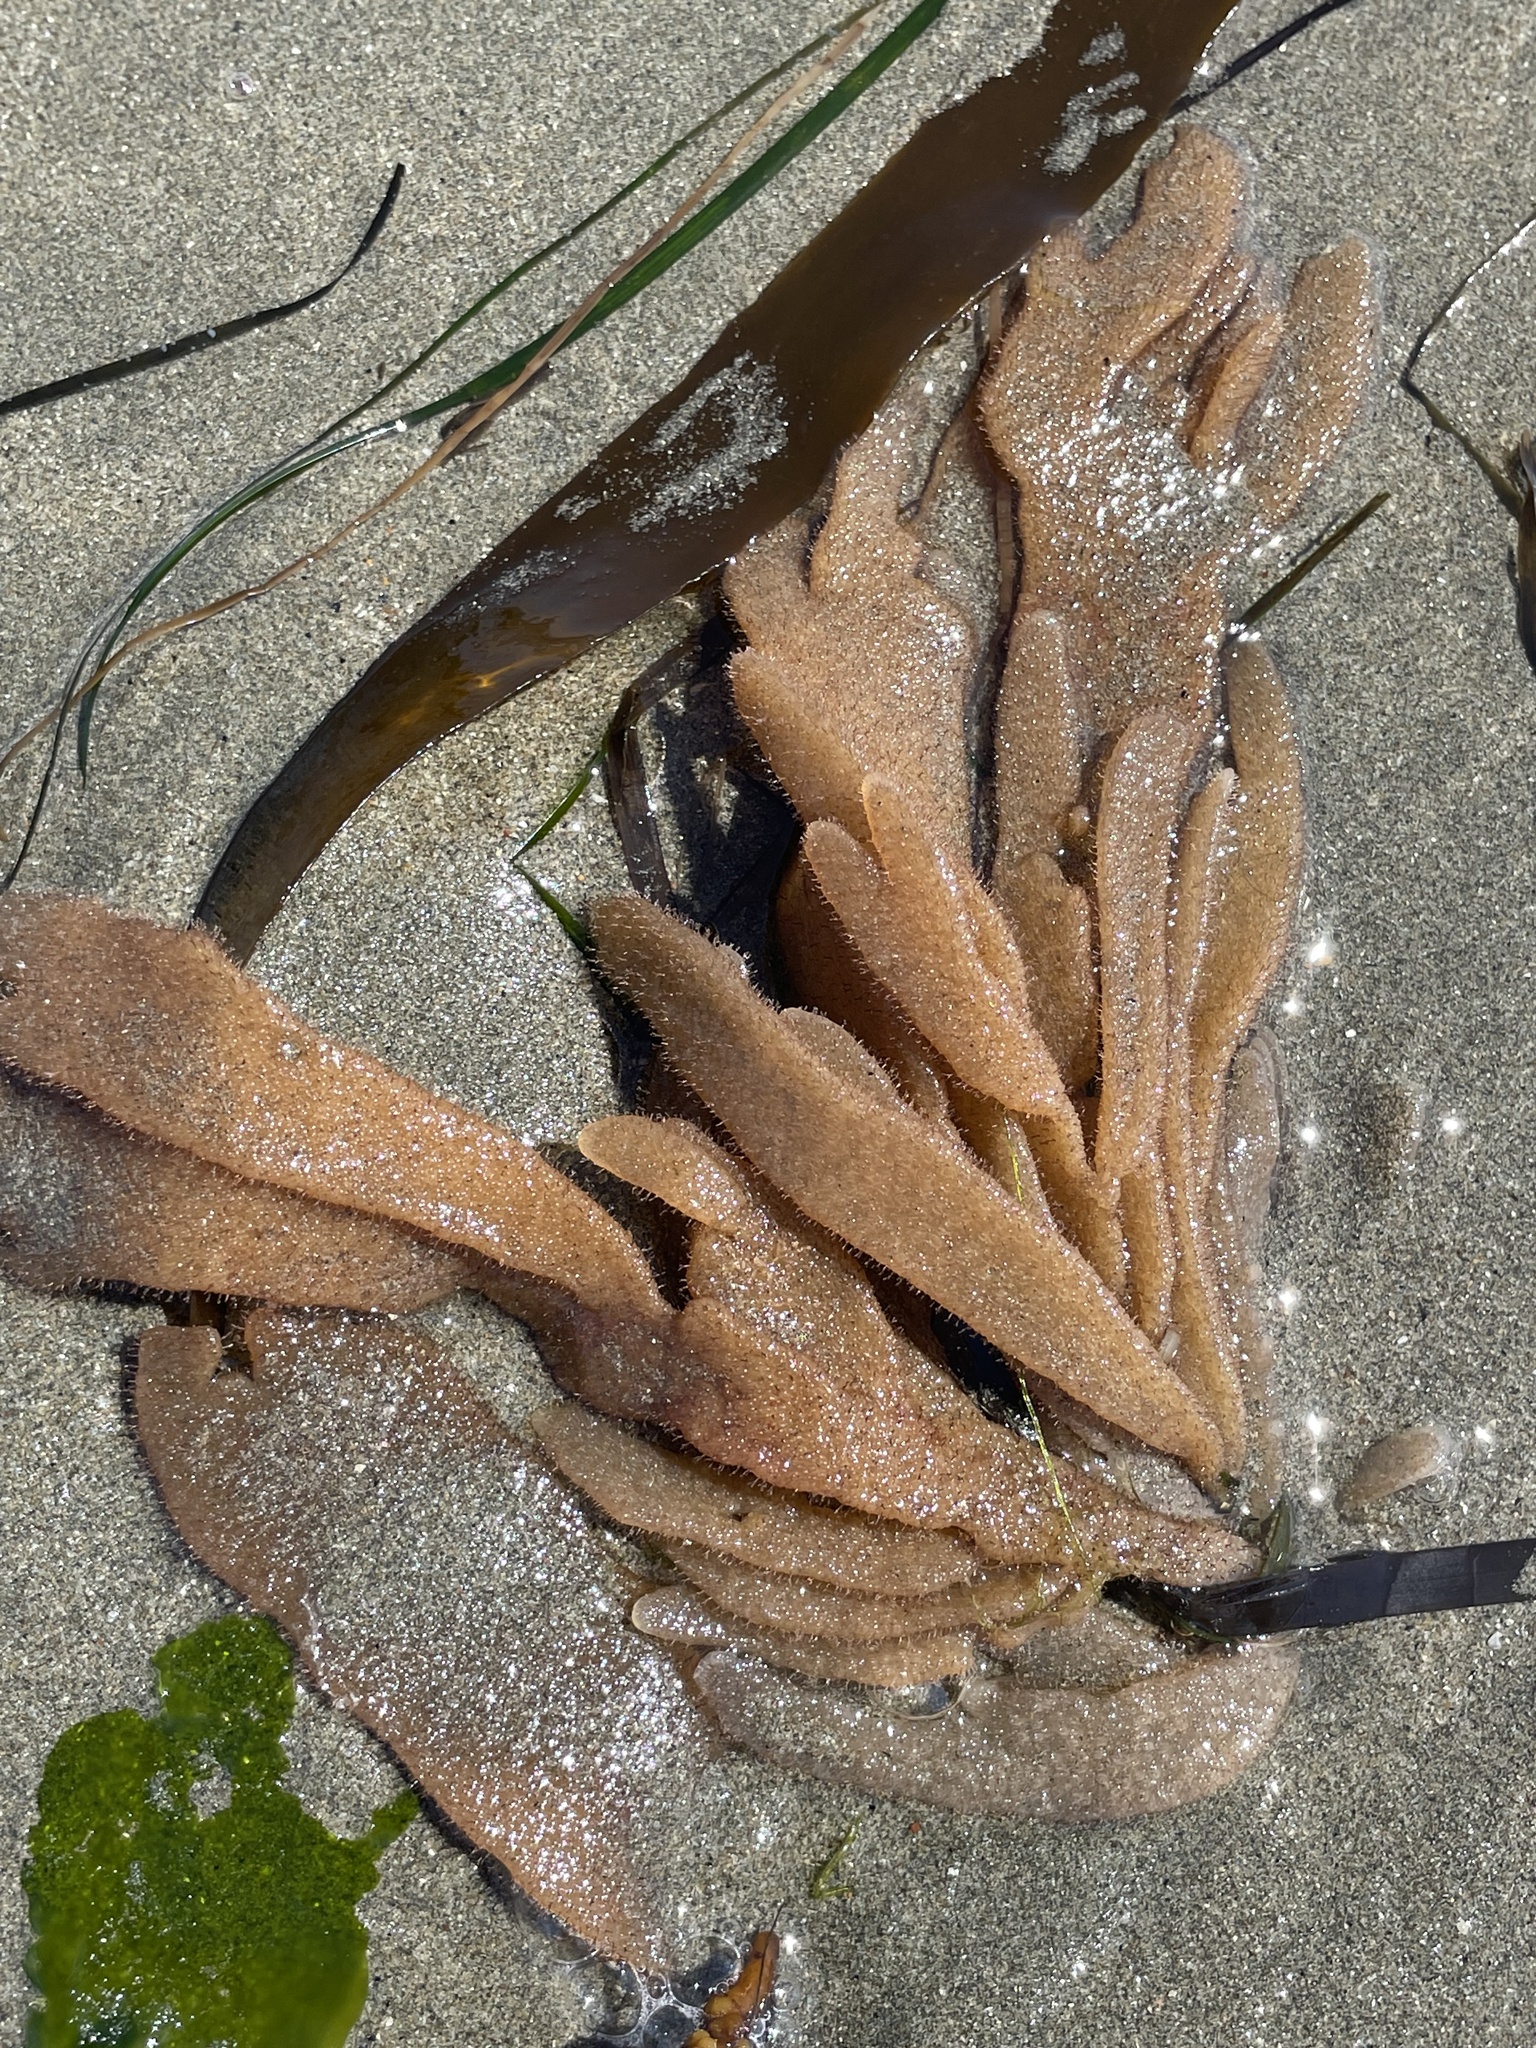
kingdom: Animalia
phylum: Bryozoa
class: Gymnolaemata
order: Ctenostomatida
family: Flustrellidridae
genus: Flustrellidra
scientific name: Flustrellidra corniculata
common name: Spiny leather bryozoan
